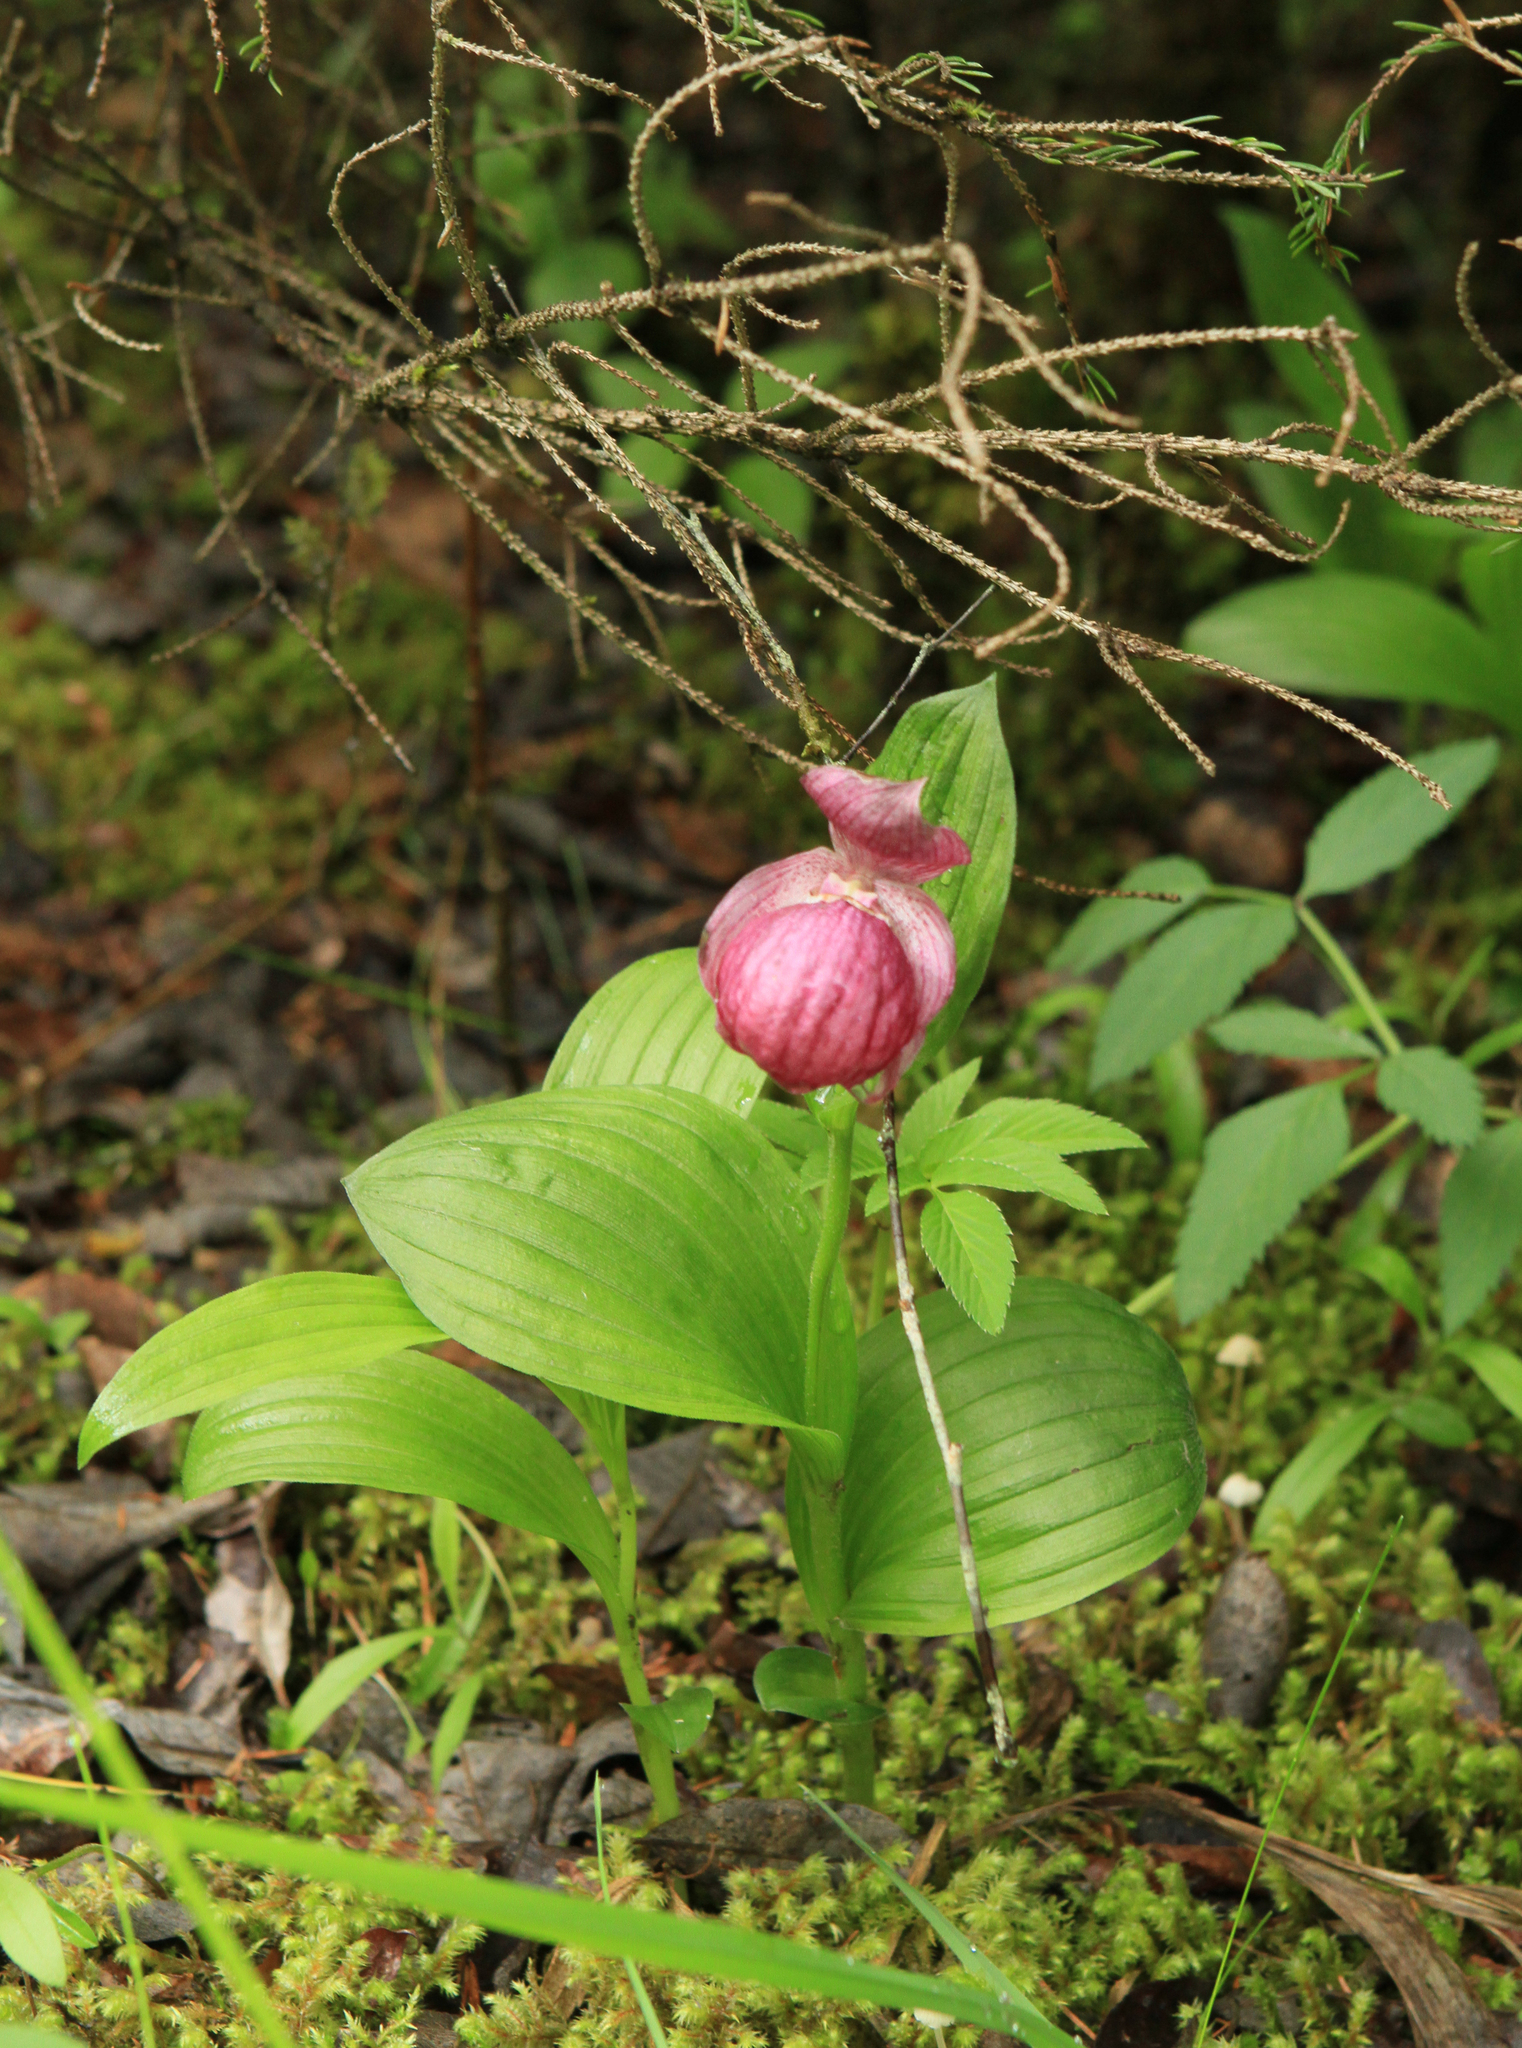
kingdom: Plantae
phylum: Tracheophyta
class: Liliopsida
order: Asparagales
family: Orchidaceae
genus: Cypripedium
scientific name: Cypripedium macranthos
